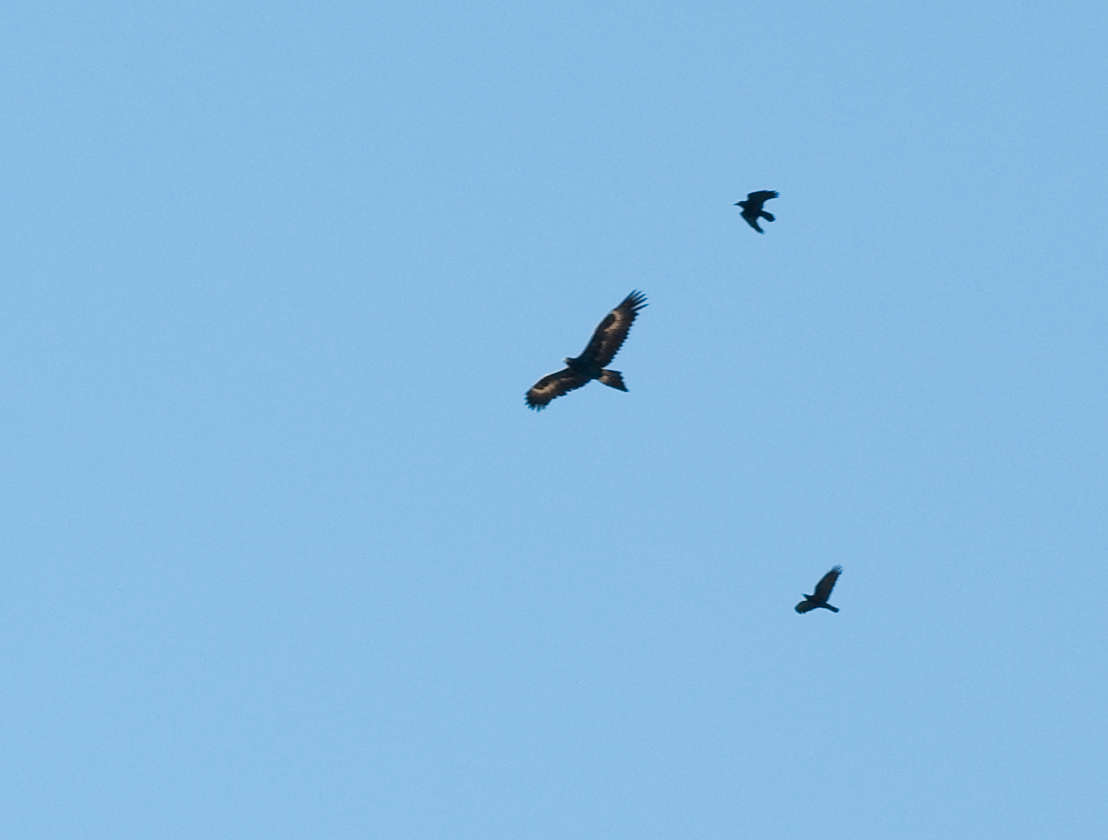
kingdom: Animalia
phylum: Chordata
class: Aves
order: Accipitriformes
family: Accipitridae
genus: Aquila
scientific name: Aquila audax
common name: Wedge-tailed eagle
